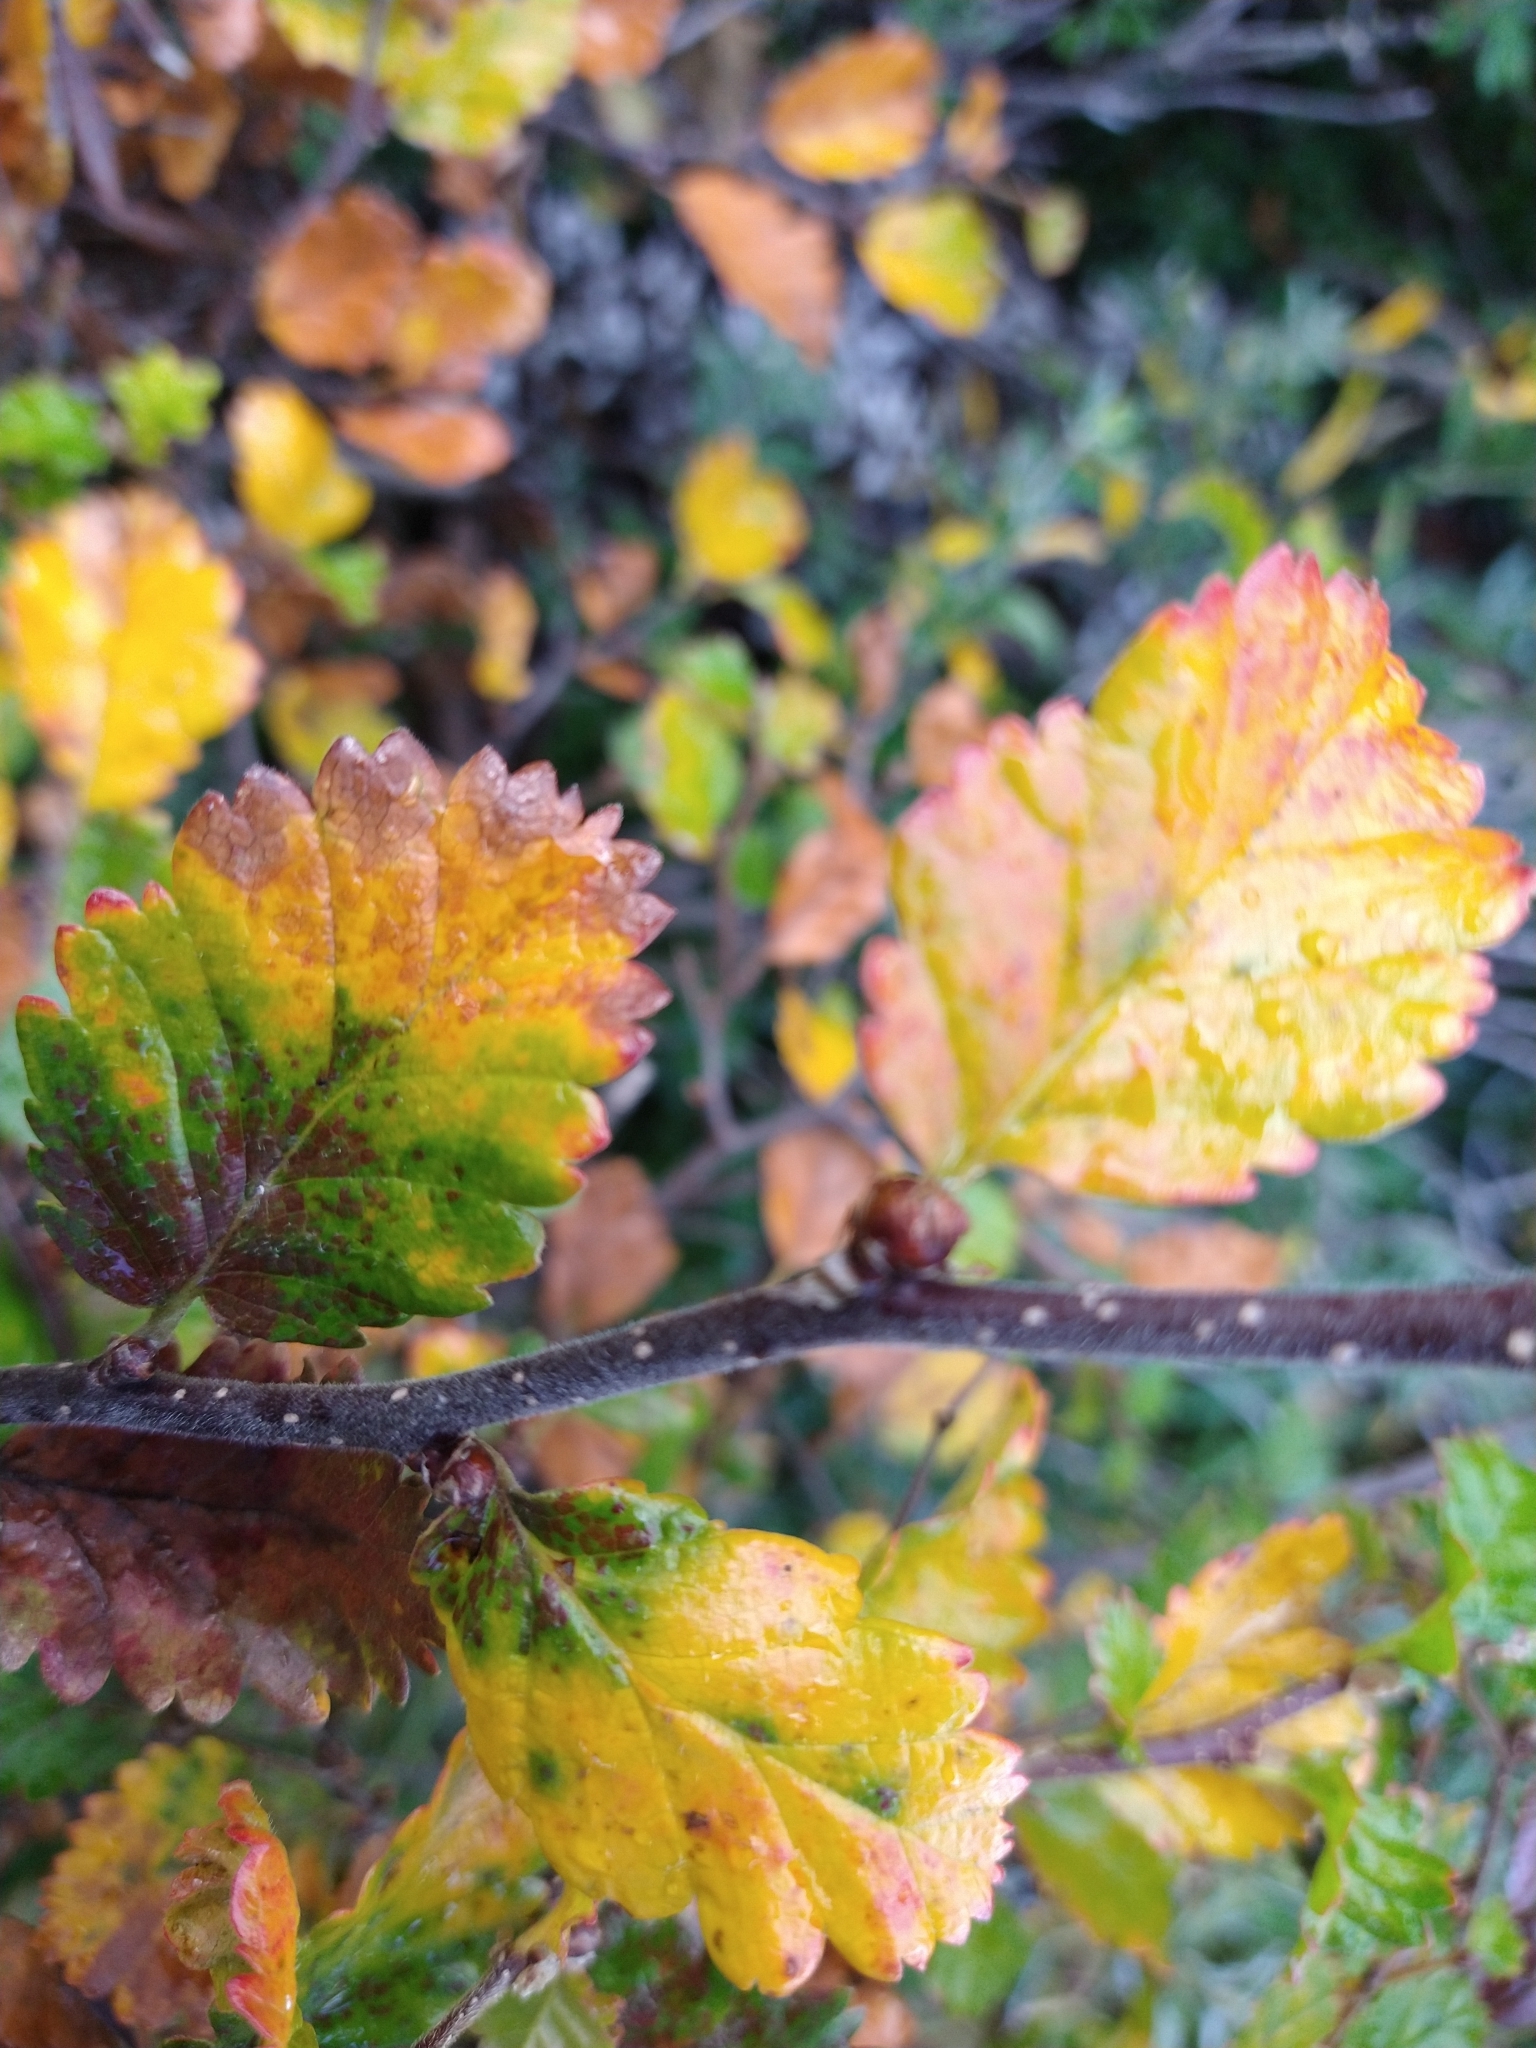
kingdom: Plantae
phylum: Tracheophyta
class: Magnoliopsida
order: Fagales
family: Nothofagaceae
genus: Nothofagus
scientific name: Nothofagus pumilio
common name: Lenga beech
